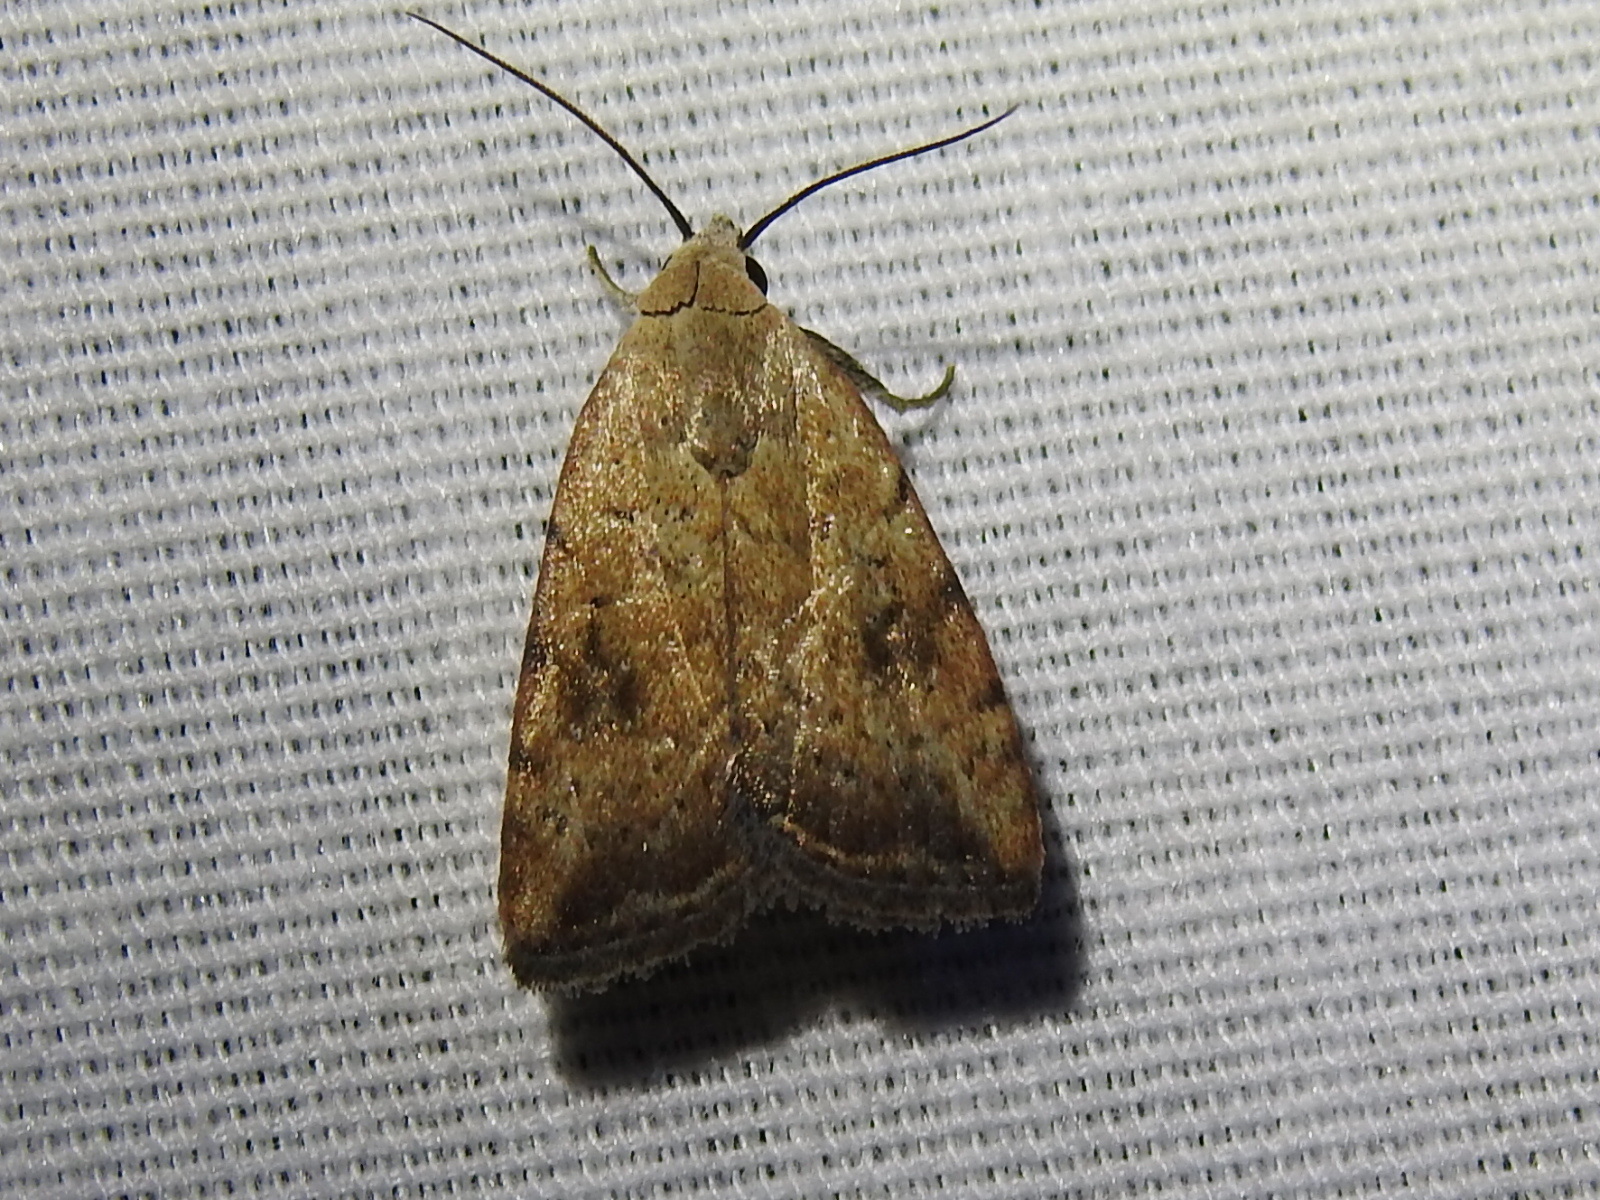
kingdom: Animalia
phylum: Arthropoda
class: Insecta
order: Lepidoptera
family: Noctuidae
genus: Micrathetis
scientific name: Micrathetis triplex
